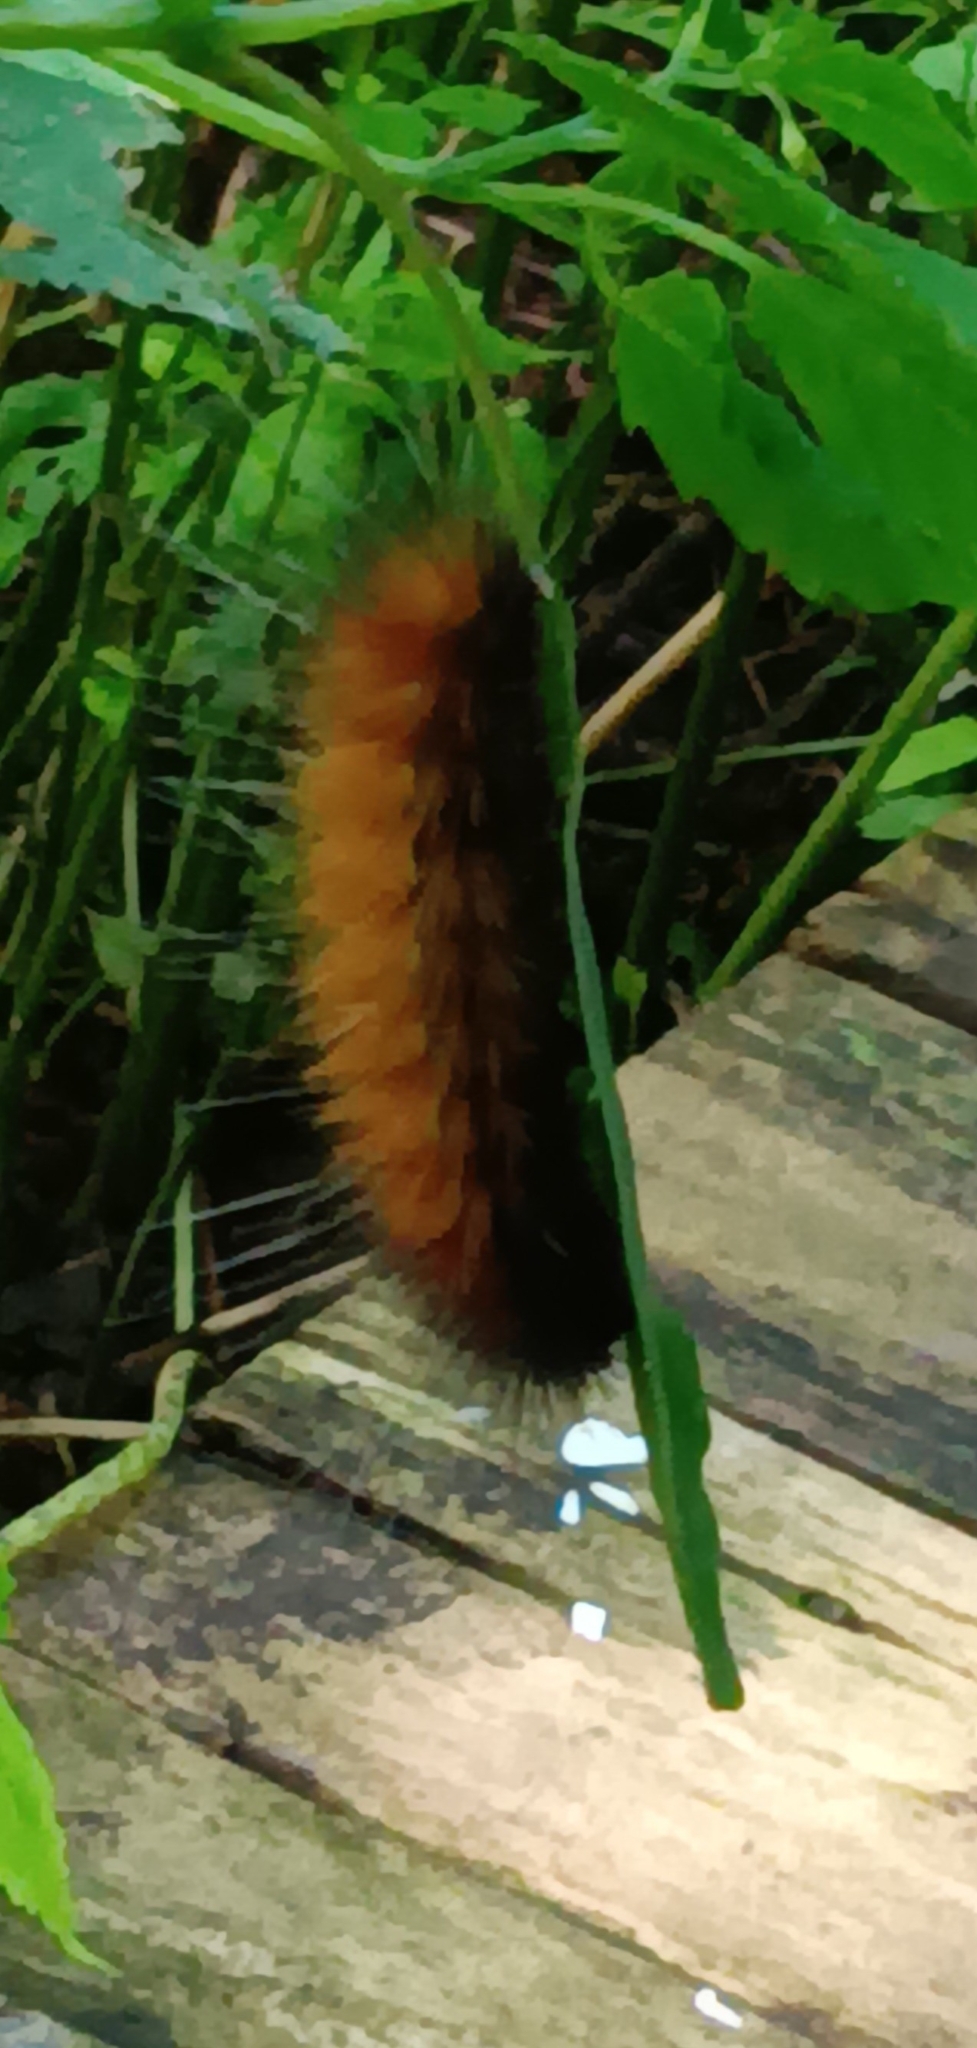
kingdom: Animalia
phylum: Arthropoda
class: Insecta
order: Lepidoptera
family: Erebidae
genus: Spilosoma
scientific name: Spilosoma virginica
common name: Virginia tiger moth
